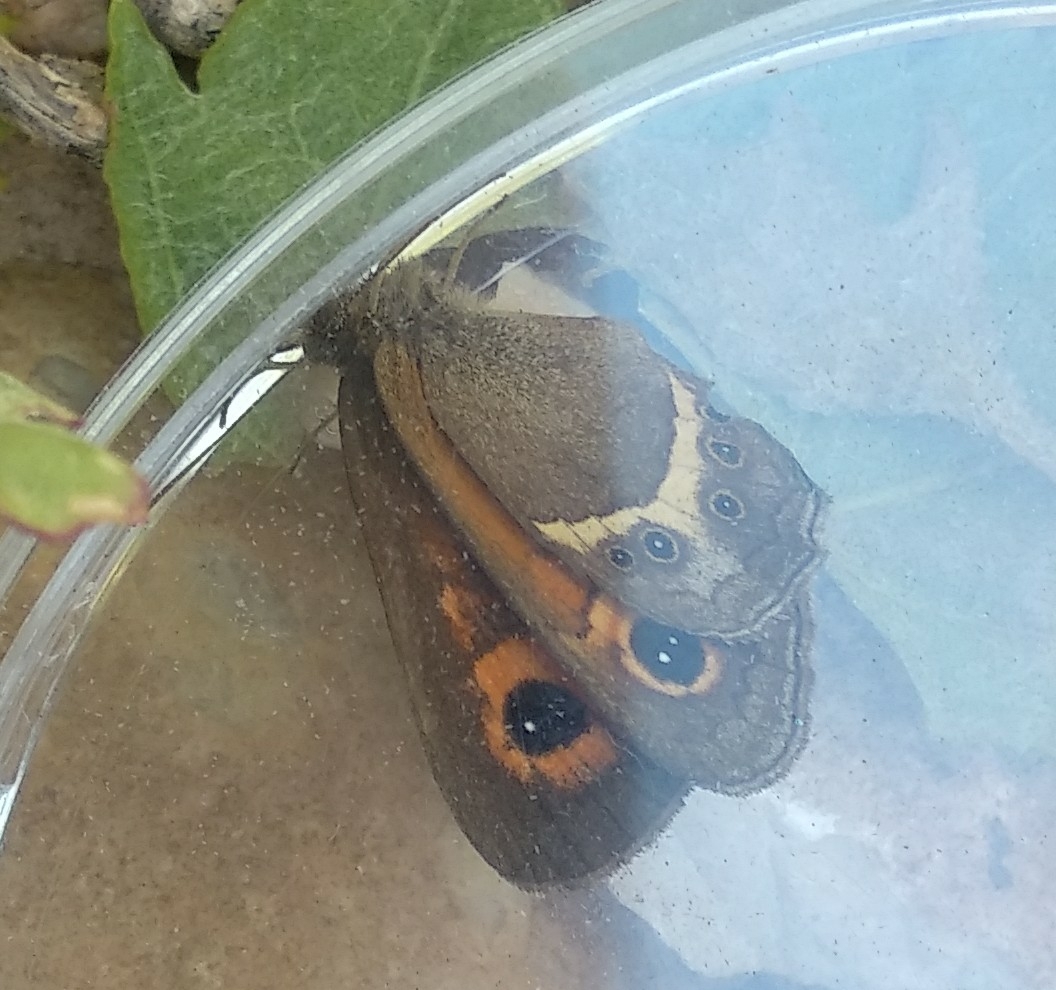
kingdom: Animalia
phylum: Arthropoda
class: Insecta
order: Lepidoptera
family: Nymphalidae
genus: Pyronia
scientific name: Pyronia bathseba
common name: Spanish gatekeeper
